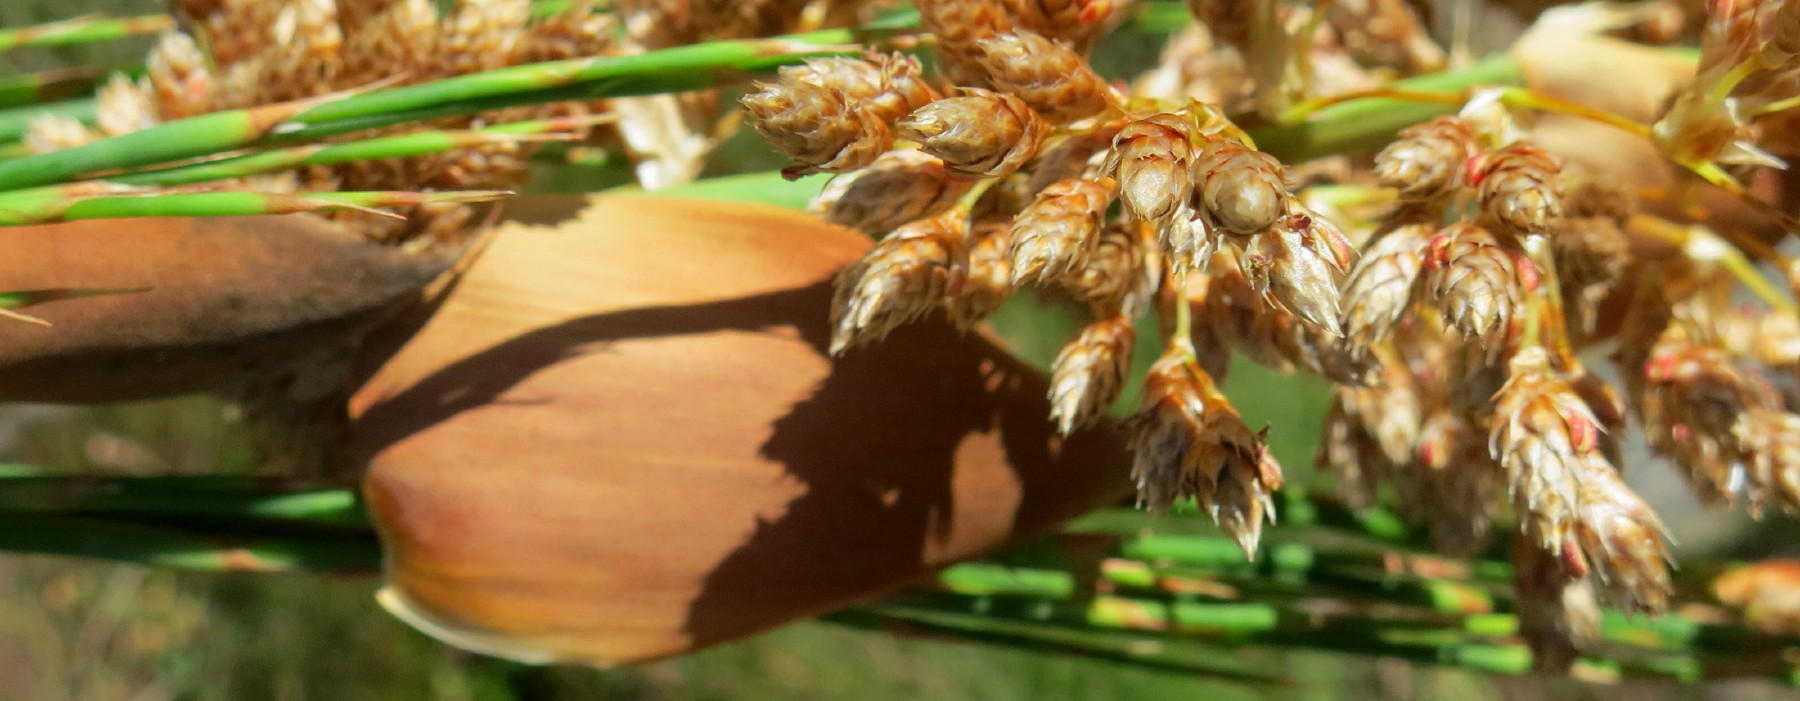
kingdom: Plantae
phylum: Tracheophyta
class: Liliopsida
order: Poales
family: Restionaceae
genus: Cannomois
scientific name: Cannomois grandis
